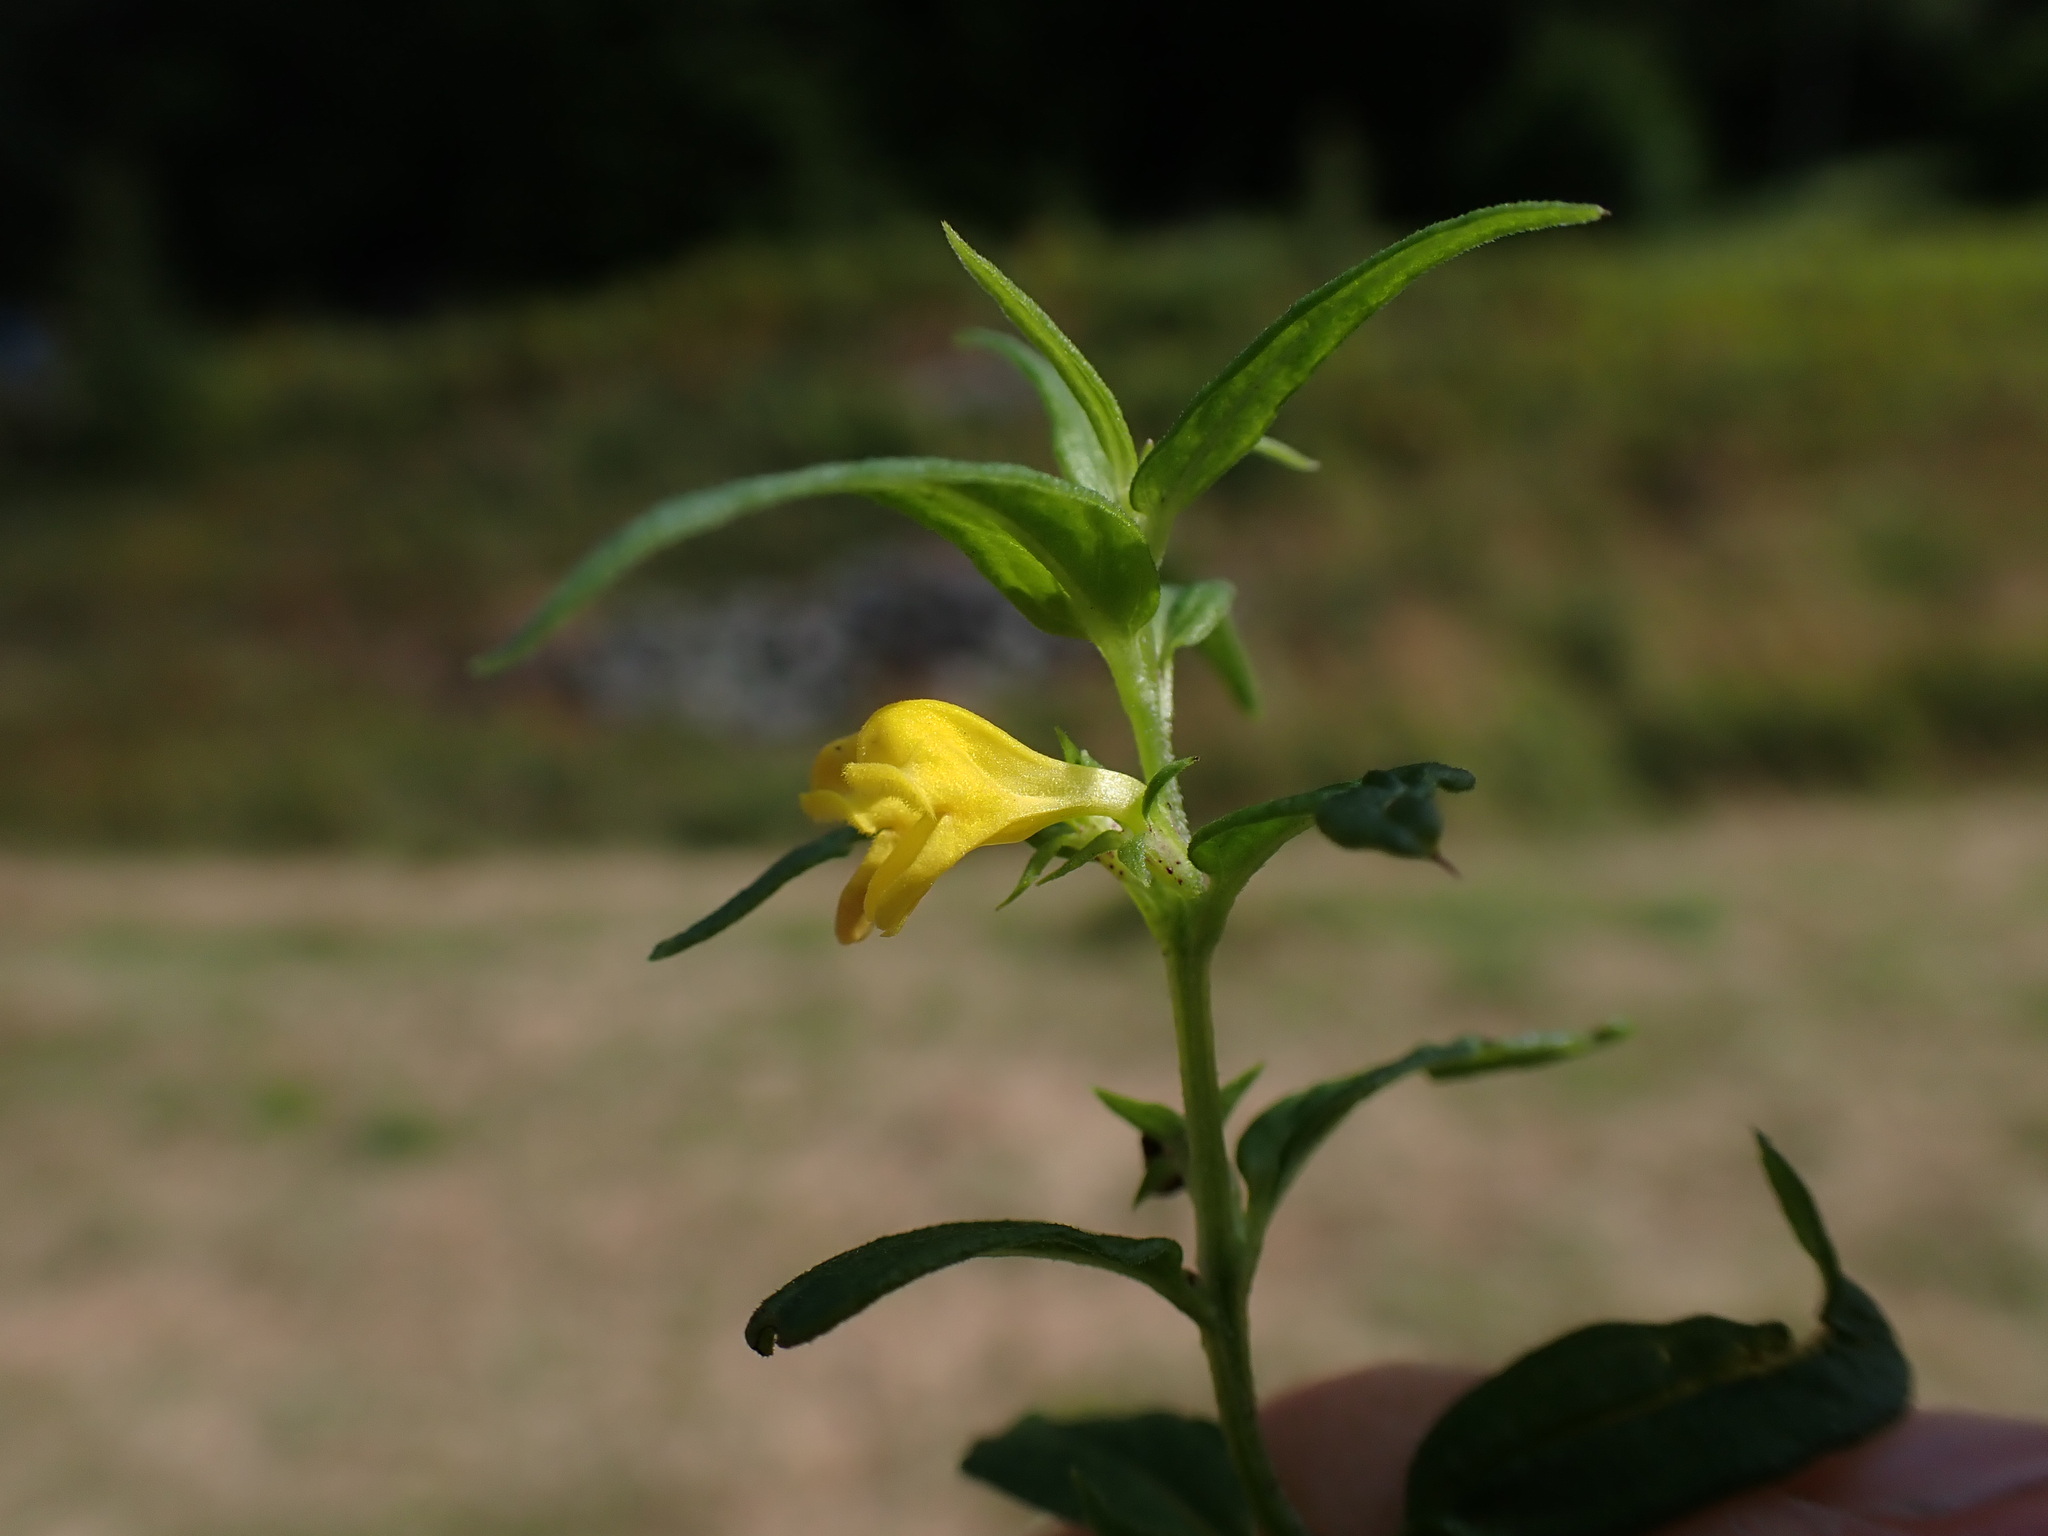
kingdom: Plantae
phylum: Tracheophyta
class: Magnoliopsida
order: Lamiales
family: Orobanchaceae
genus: Melampyrum
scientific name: Melampyrum sylvaticum
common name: Small cow-wheat
